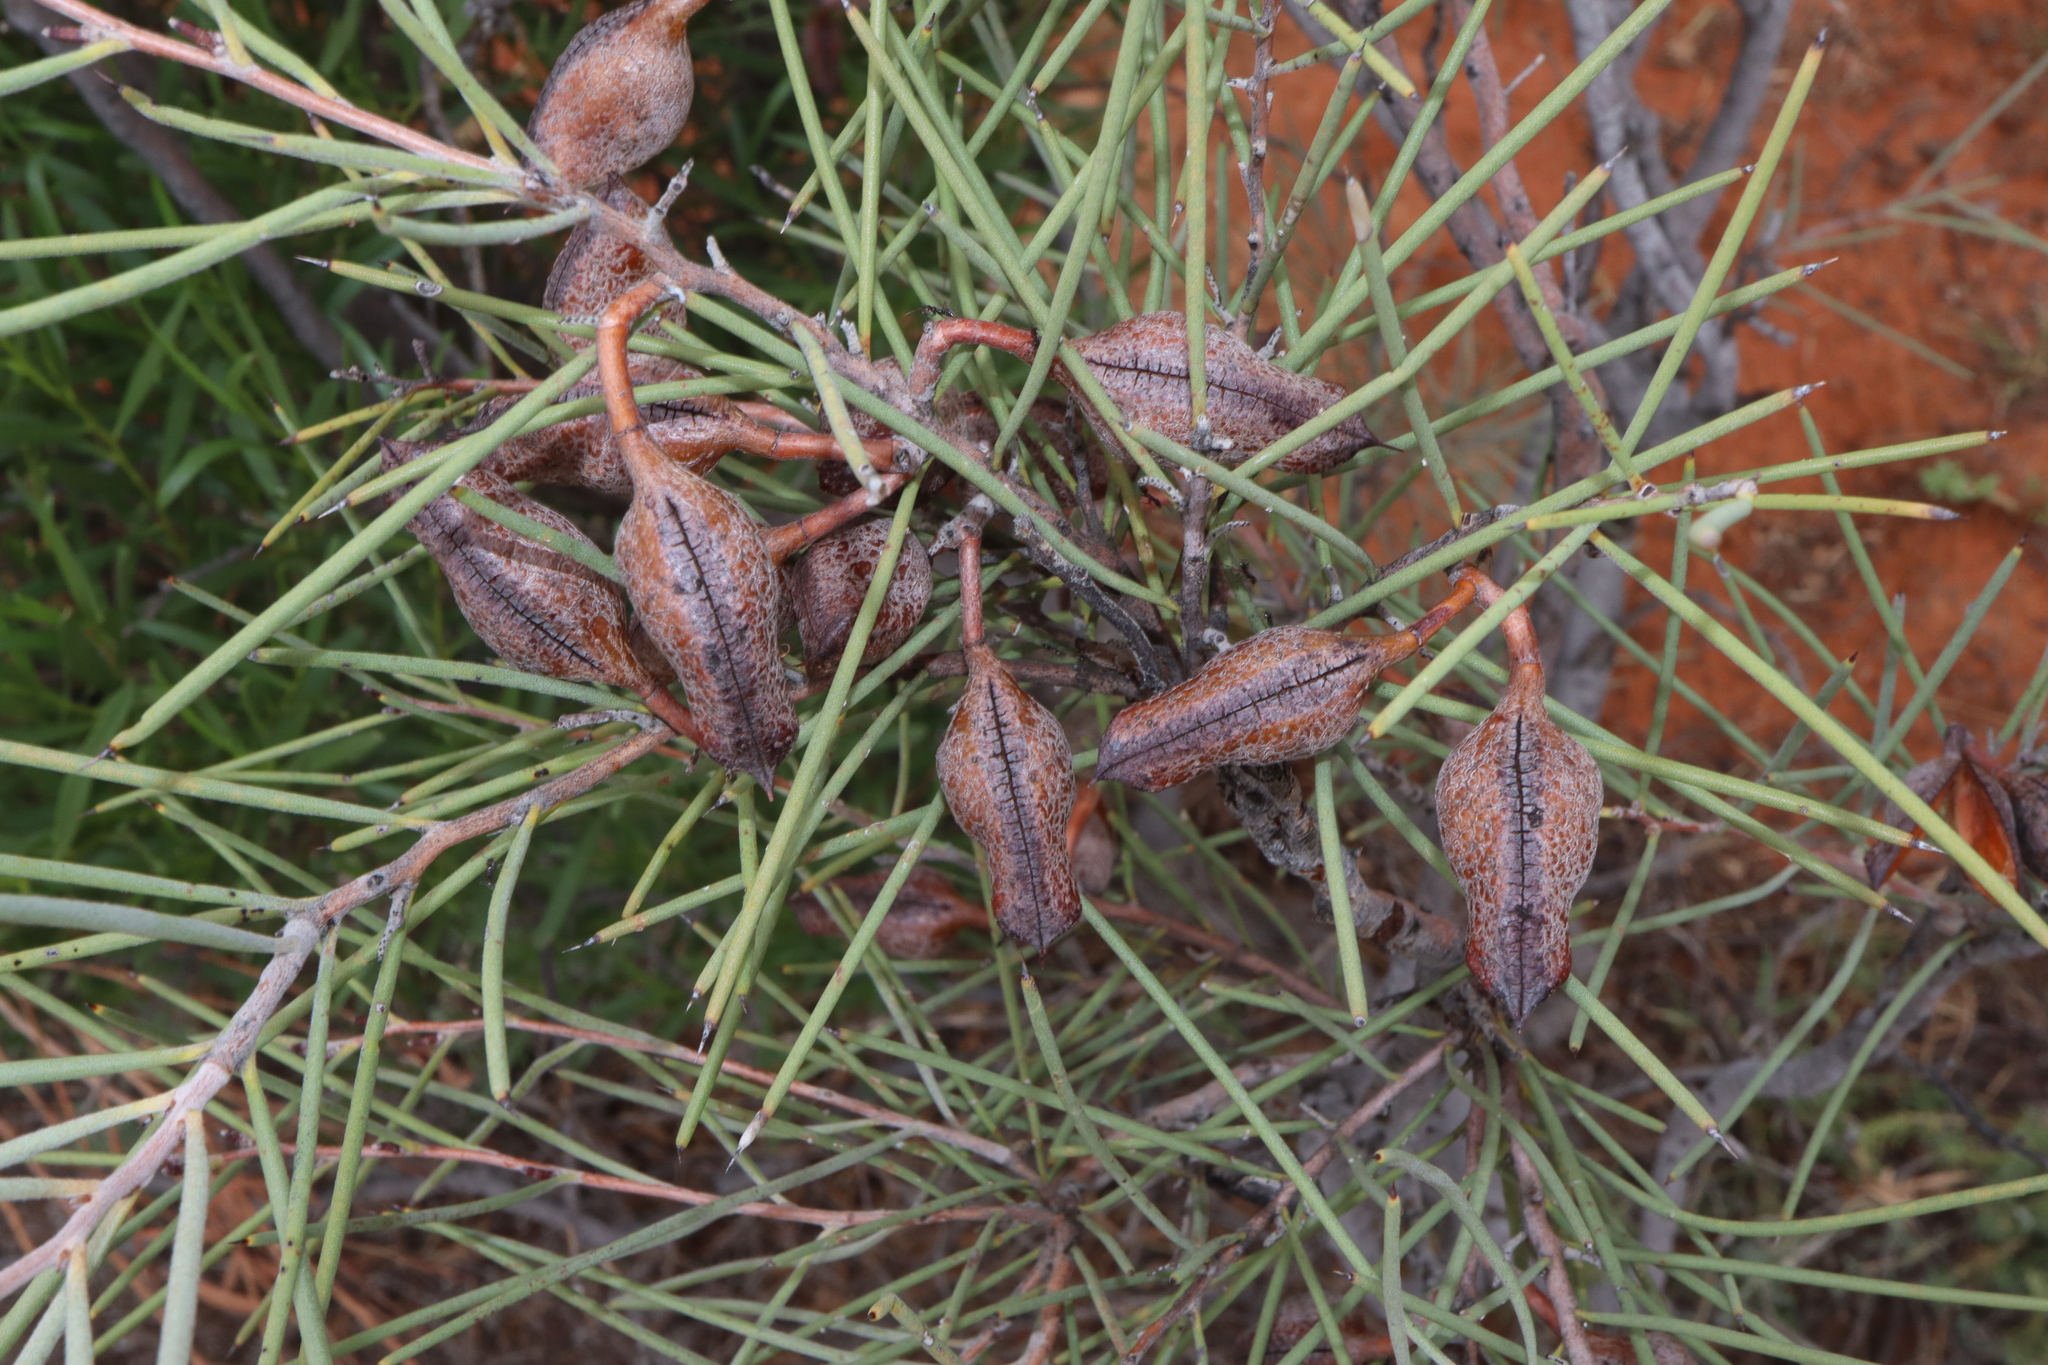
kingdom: Plantae
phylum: Tracheophyta
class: Magnoliopsida
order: Proteales
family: Proteaceae
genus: Hakea
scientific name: Hakea leucoptera
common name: Pinbush
